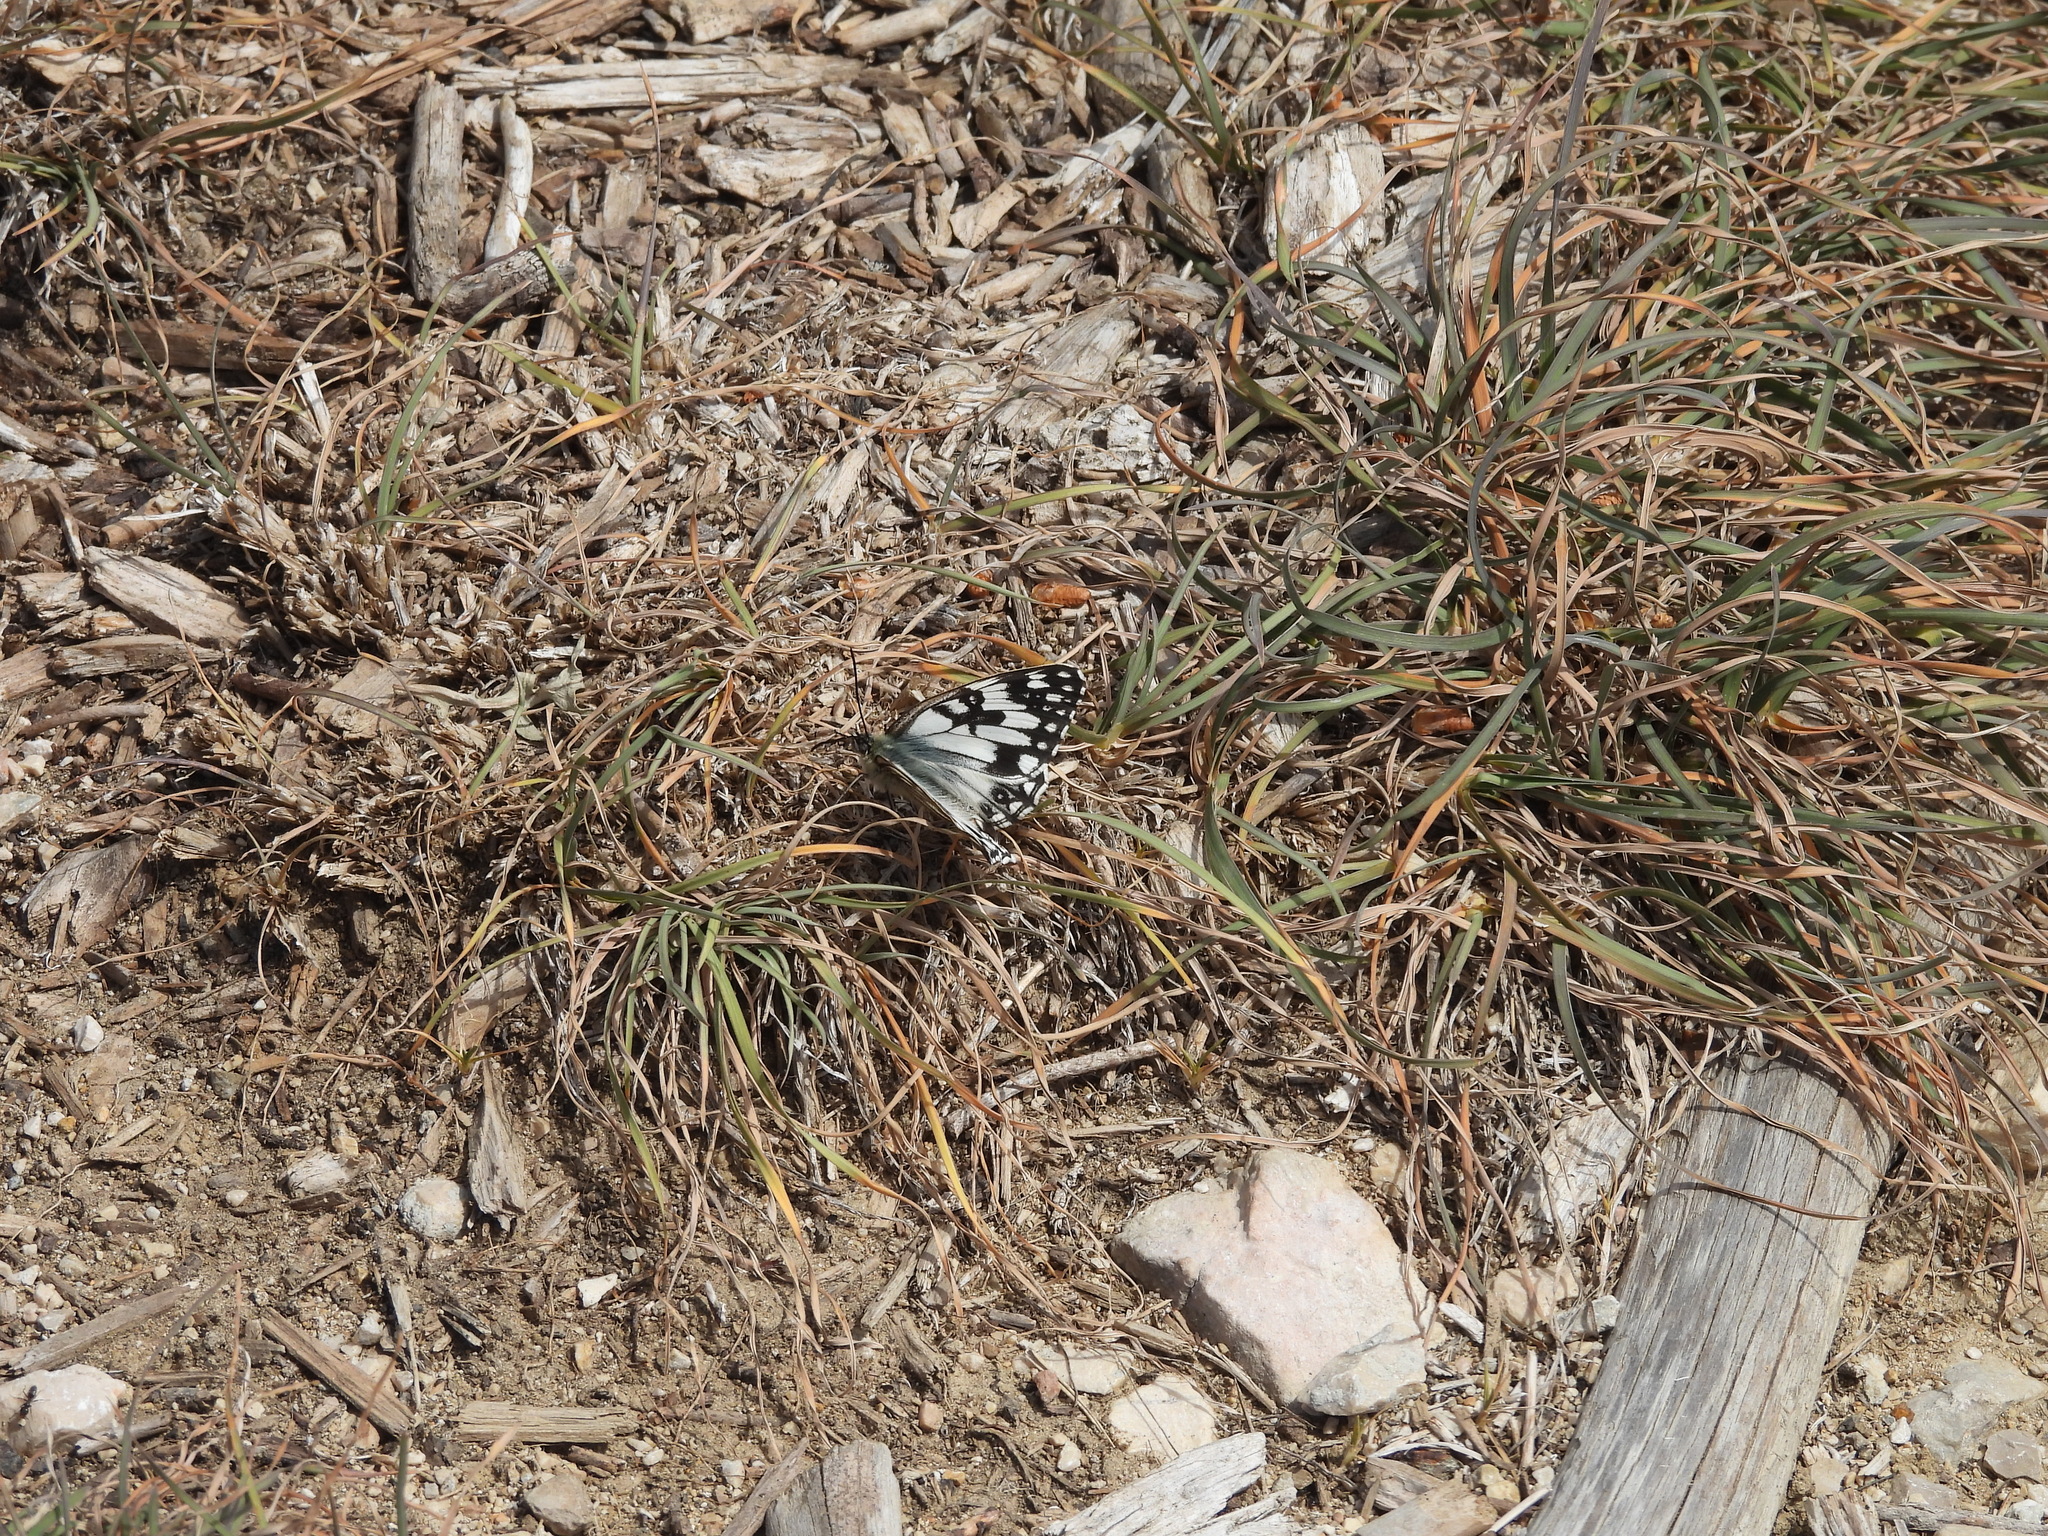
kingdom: Animalia
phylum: Arthropoda
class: Insecta
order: Lepidoptera
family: Nymphalidae
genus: Melanargia
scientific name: Melanargia occitanica
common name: Western marbled white
